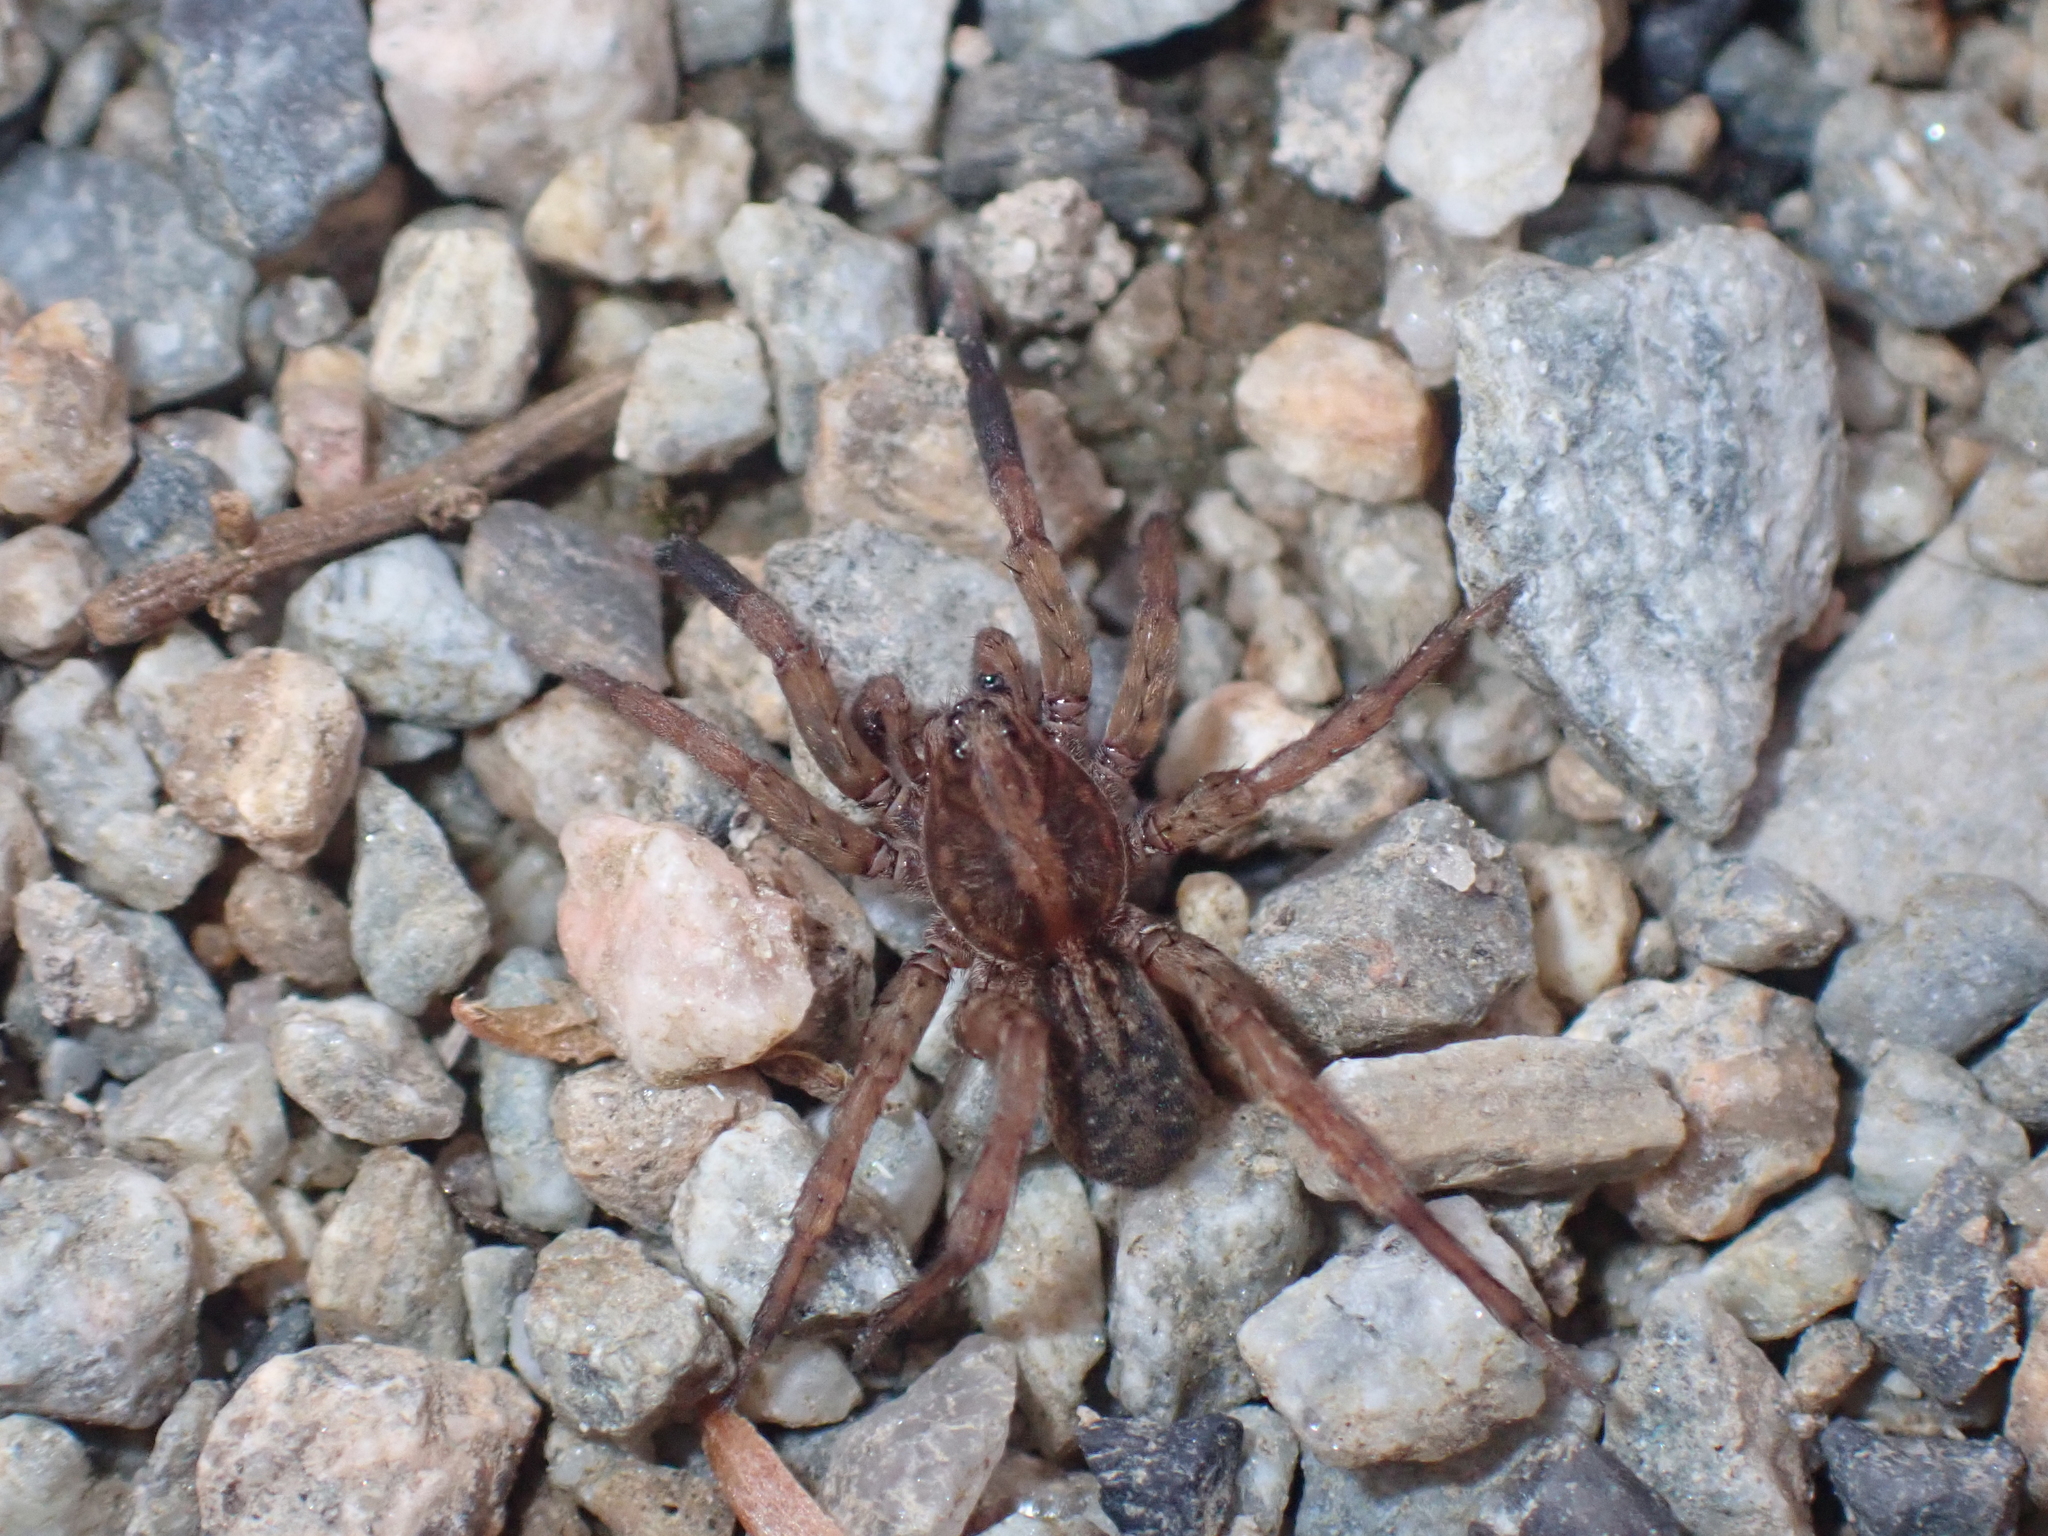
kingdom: Animalia
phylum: Arthropoda
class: Arachnida
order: Araneae
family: Lycosidae
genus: Trochosa
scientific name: Trochosa
